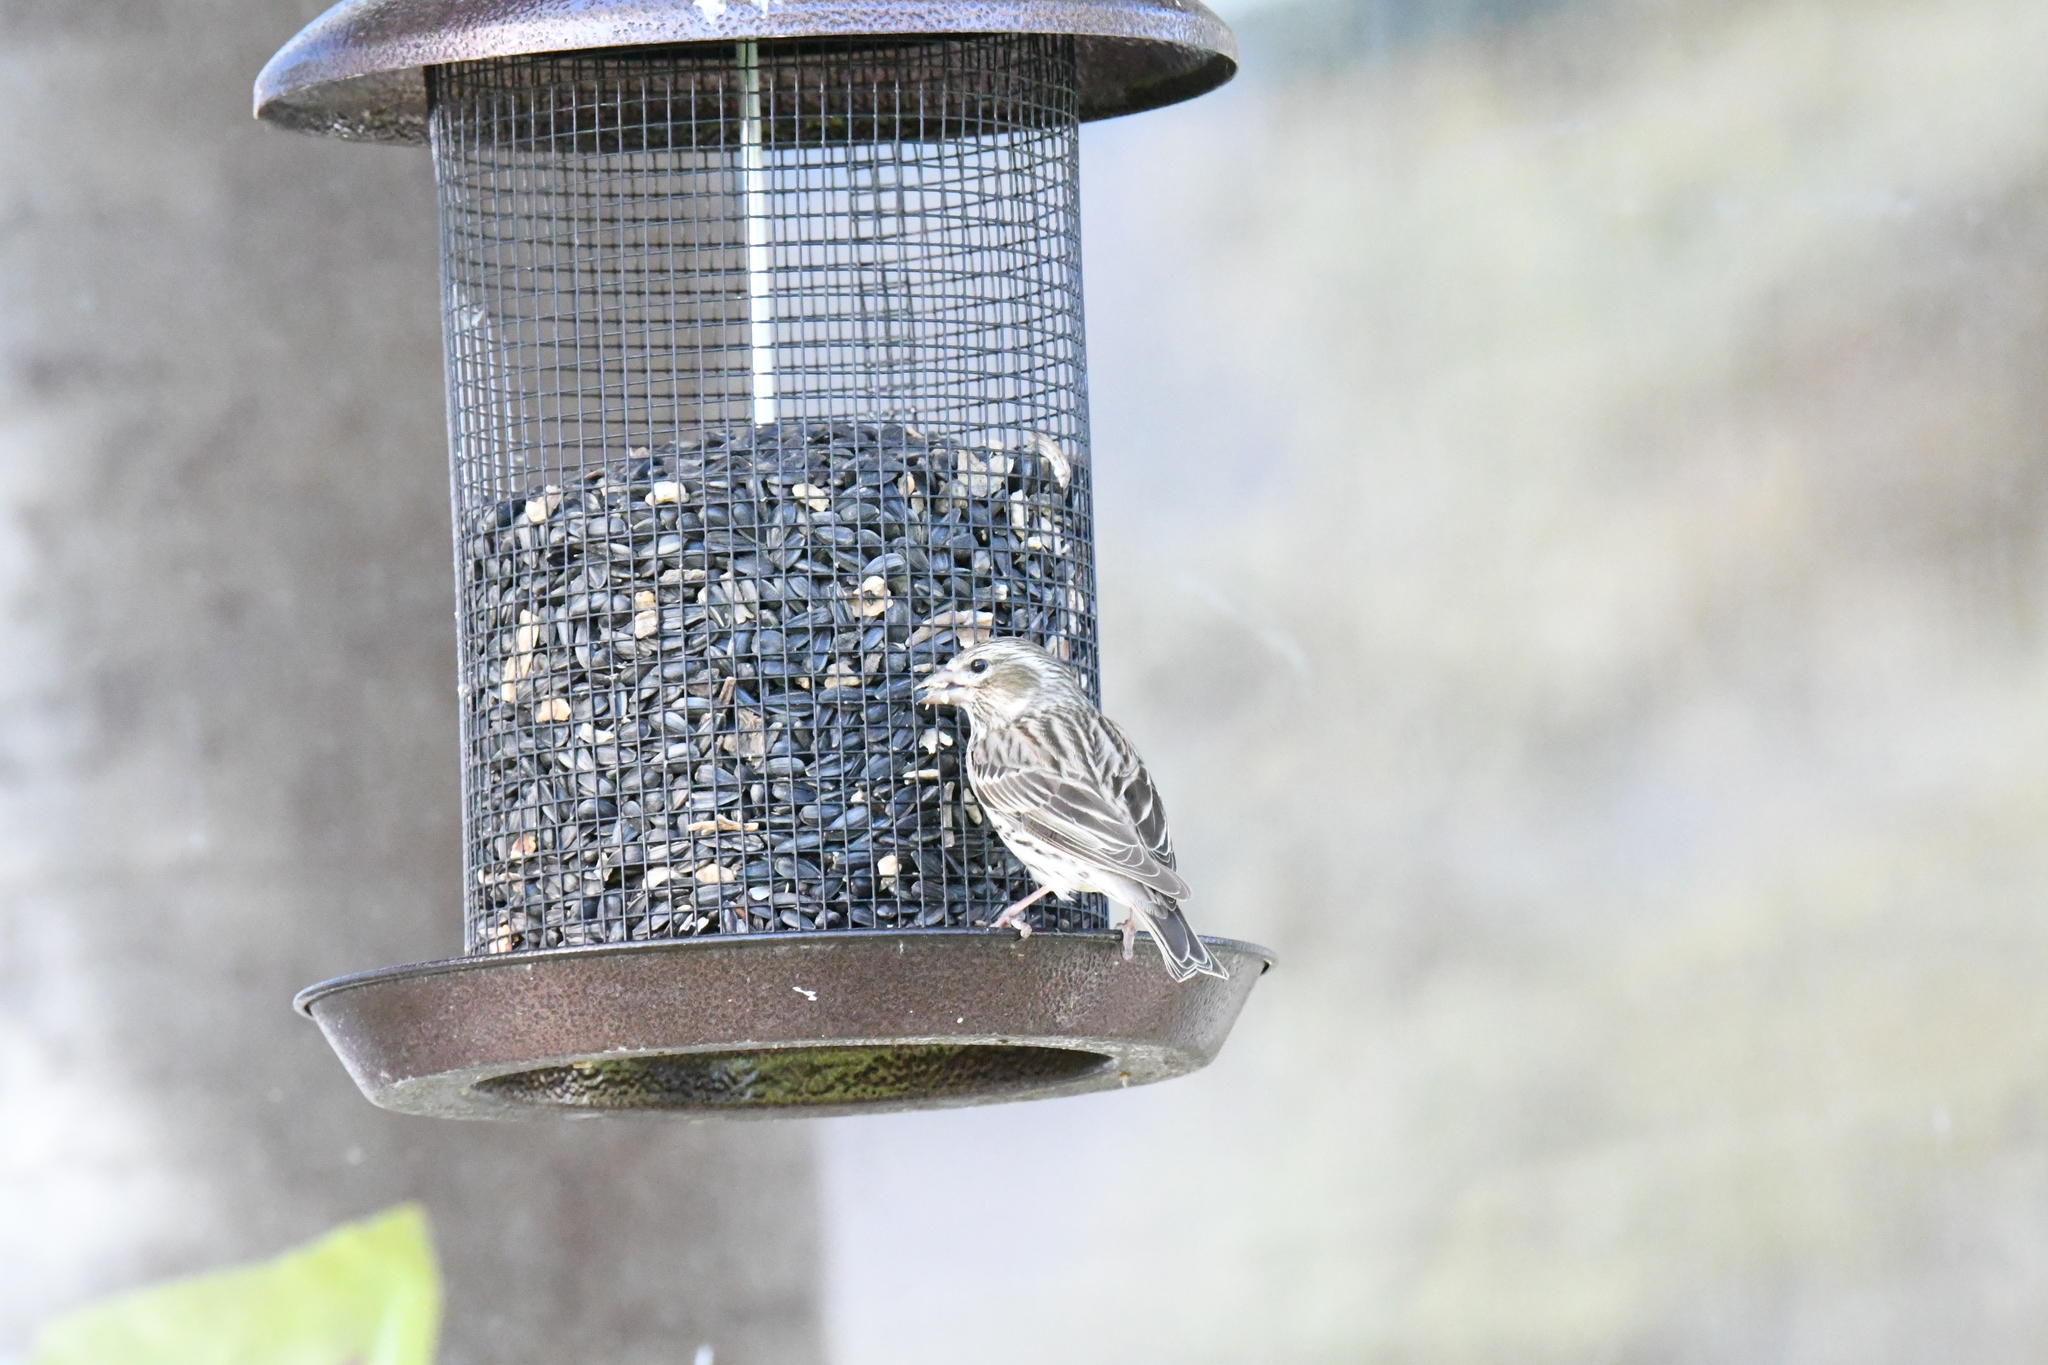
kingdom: Animalia
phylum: Chordata
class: Aves
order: Passeriformes
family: Fringillidae
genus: Haemorhous
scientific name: Haemorhous cassinii
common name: Cassin's finch
